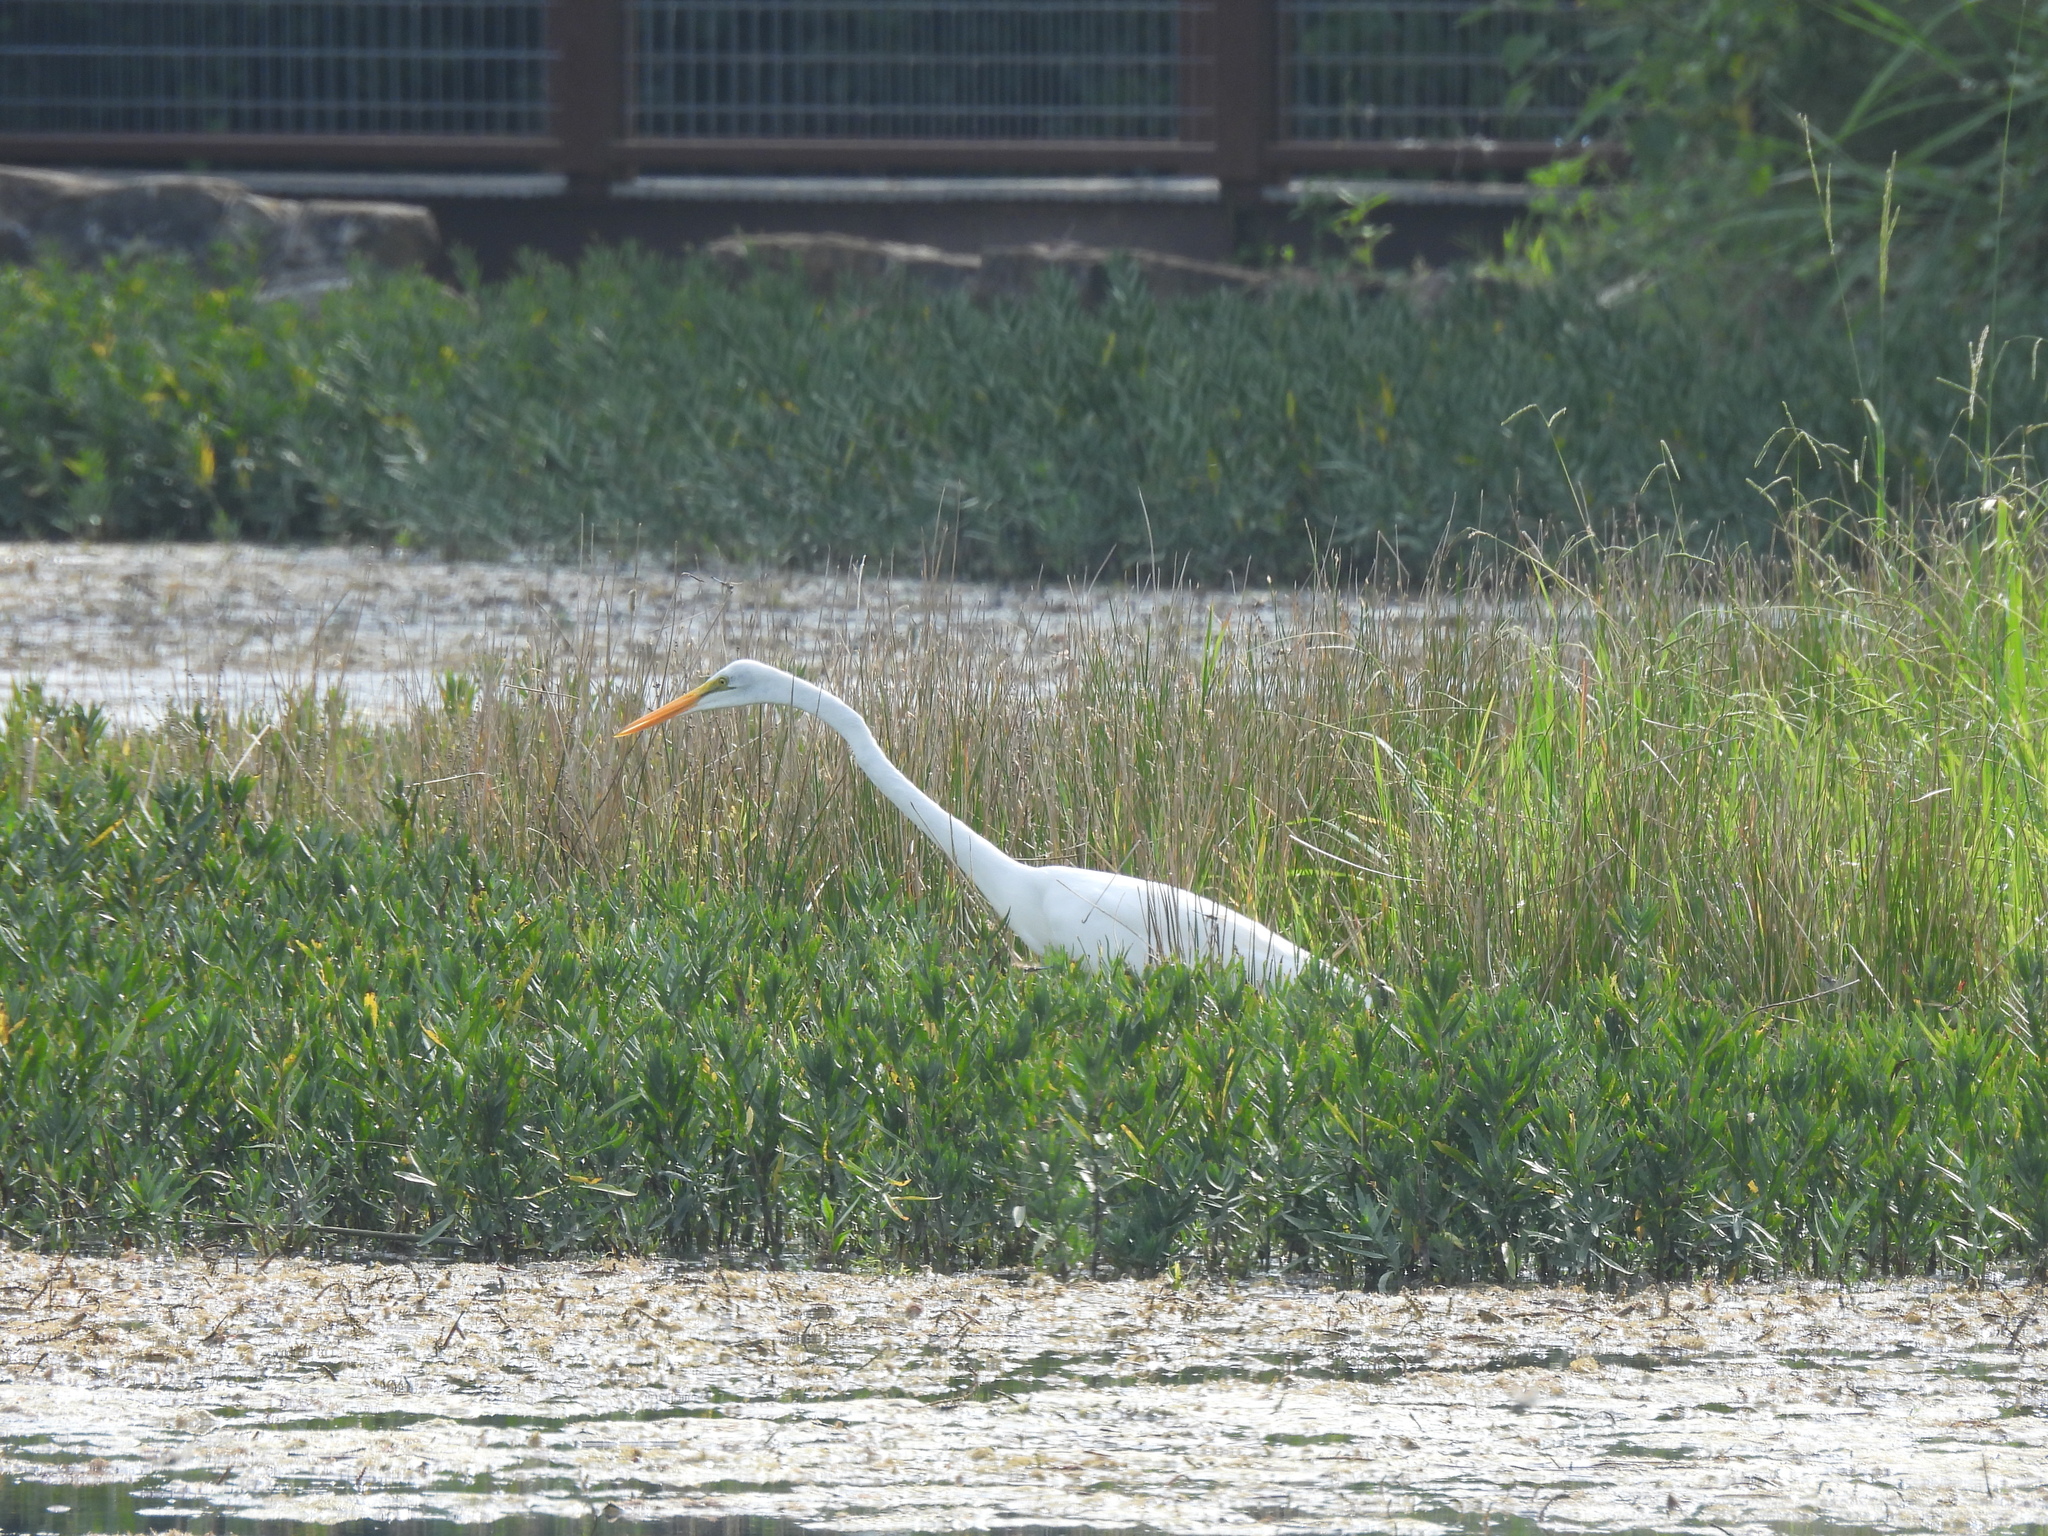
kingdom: Animalia
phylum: Chordata
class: Aves
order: Pelecaniformes
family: Ardeidae
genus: Ardea
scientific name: Ardea alba
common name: Great egret
